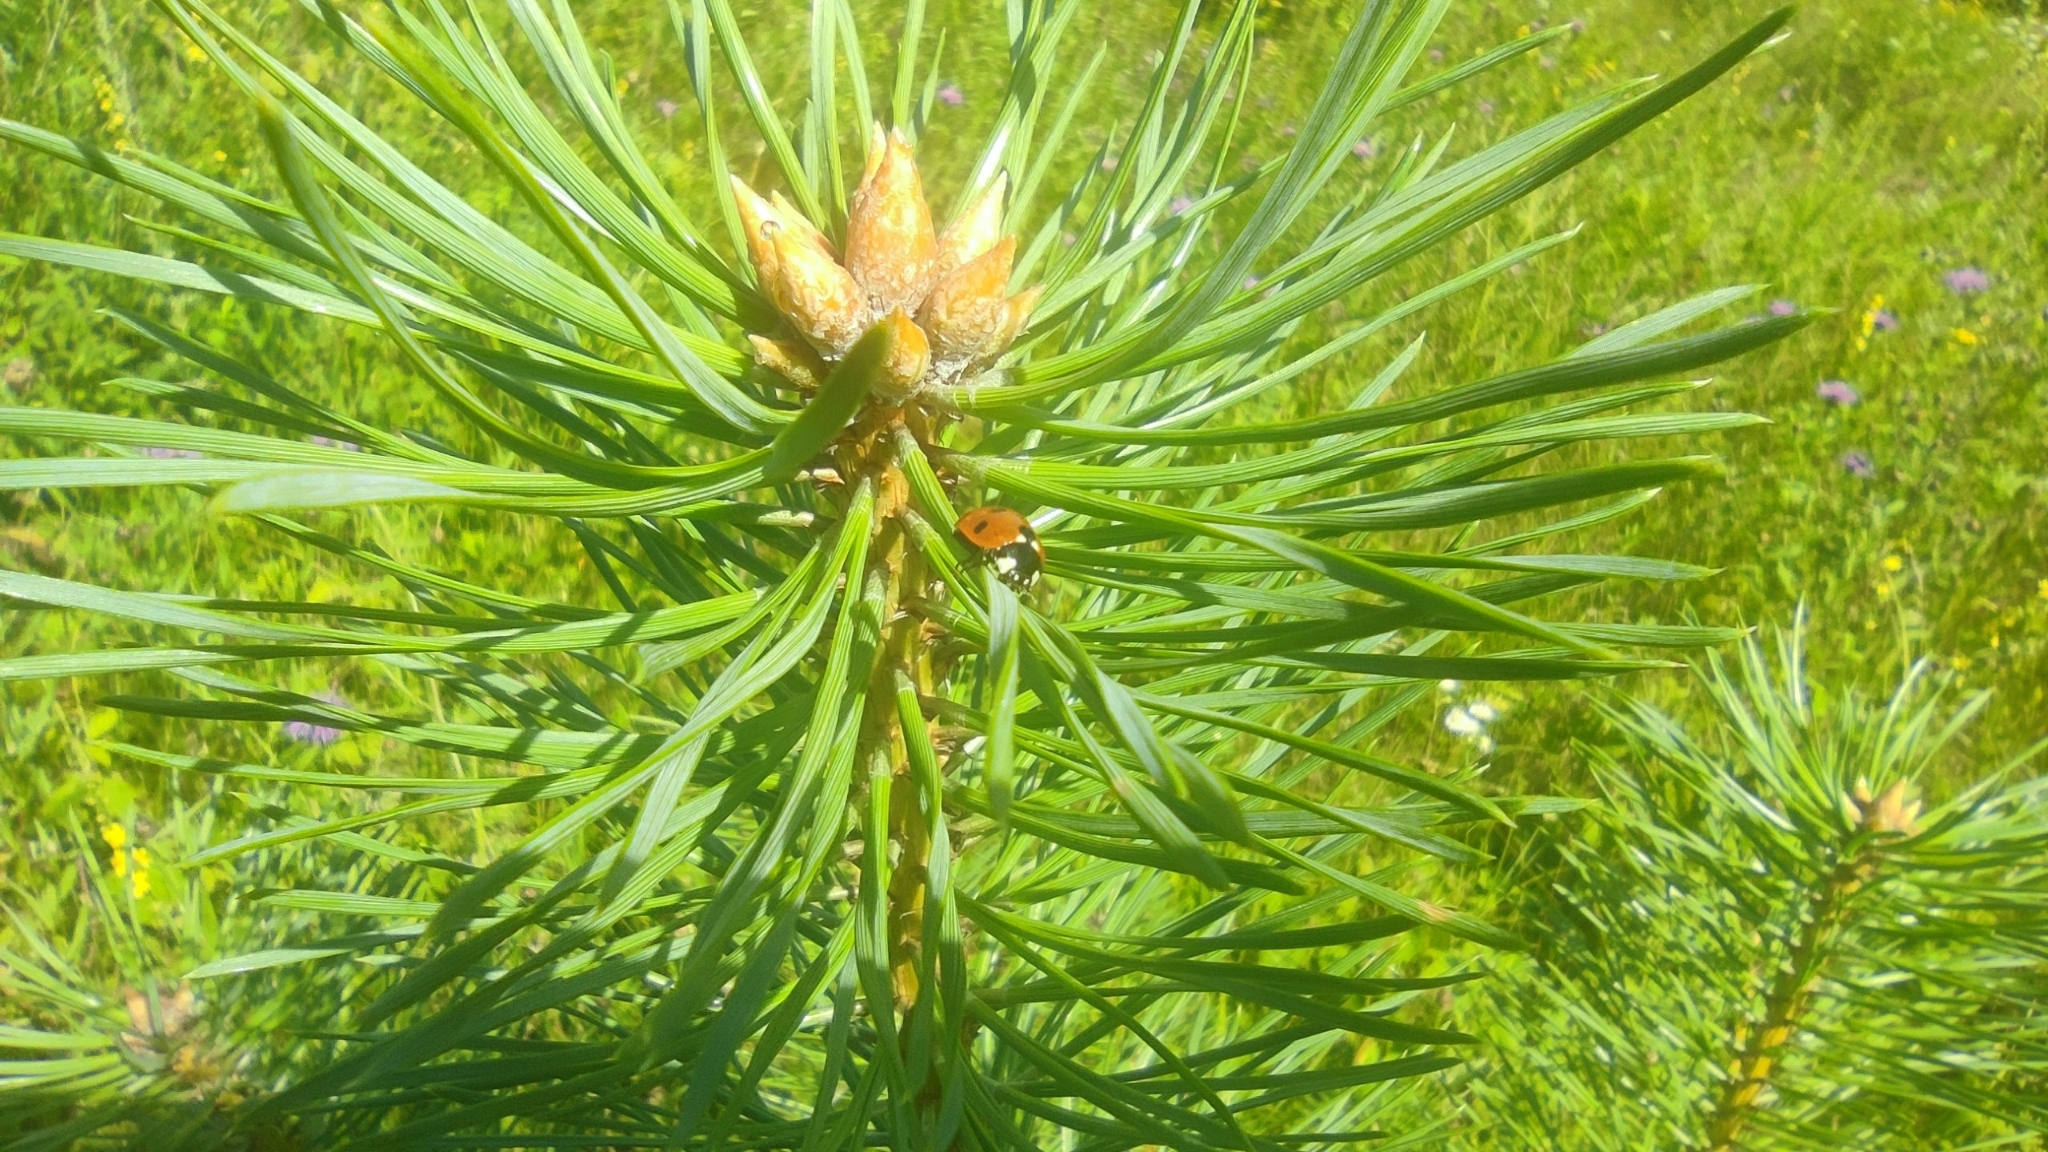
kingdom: Plantae
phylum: Tracheophyta
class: Pinopsida
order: Pinales
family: Pinaceae
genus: Pinus
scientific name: Pinus sylvestris
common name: Scots pine
